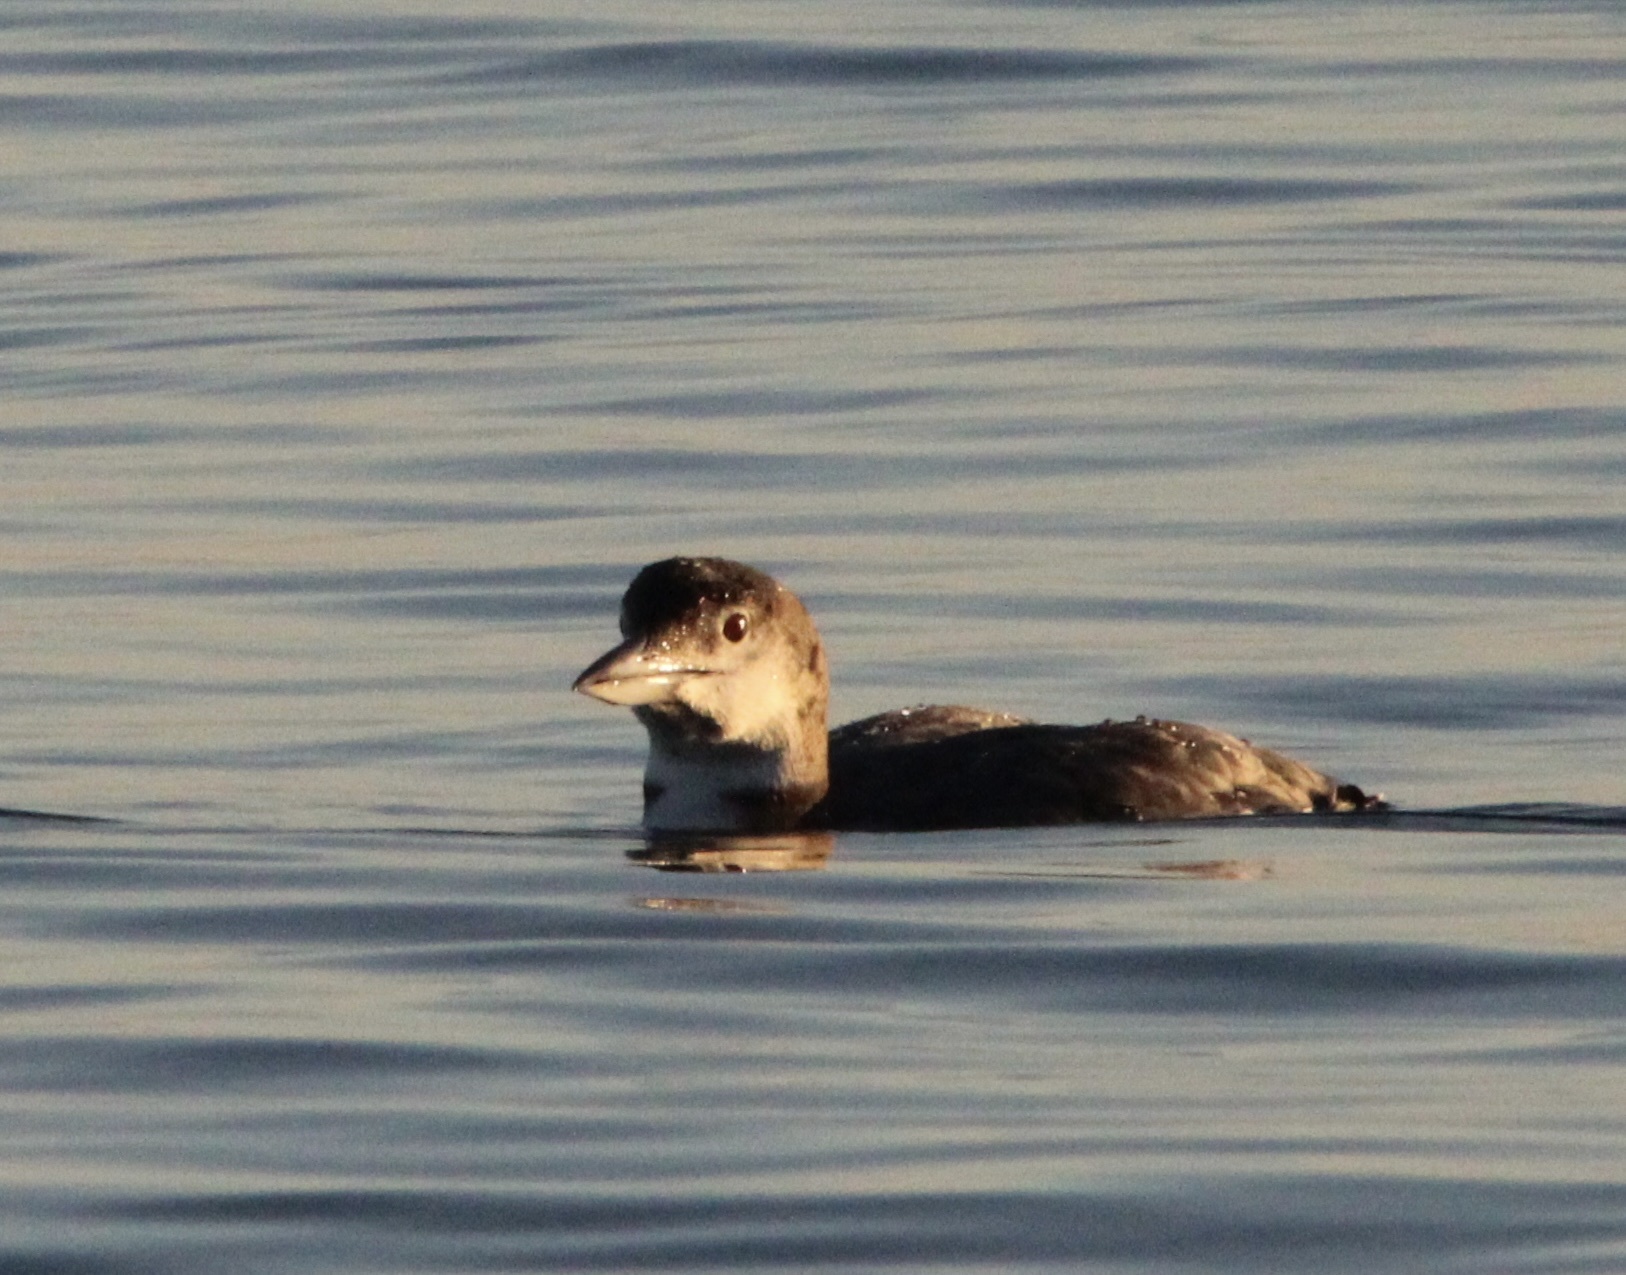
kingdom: Animalia
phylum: Chordata
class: Aves
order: Gaviiformes
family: Gaviidae
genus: Gavia
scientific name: Gavia immer
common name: Common loon
